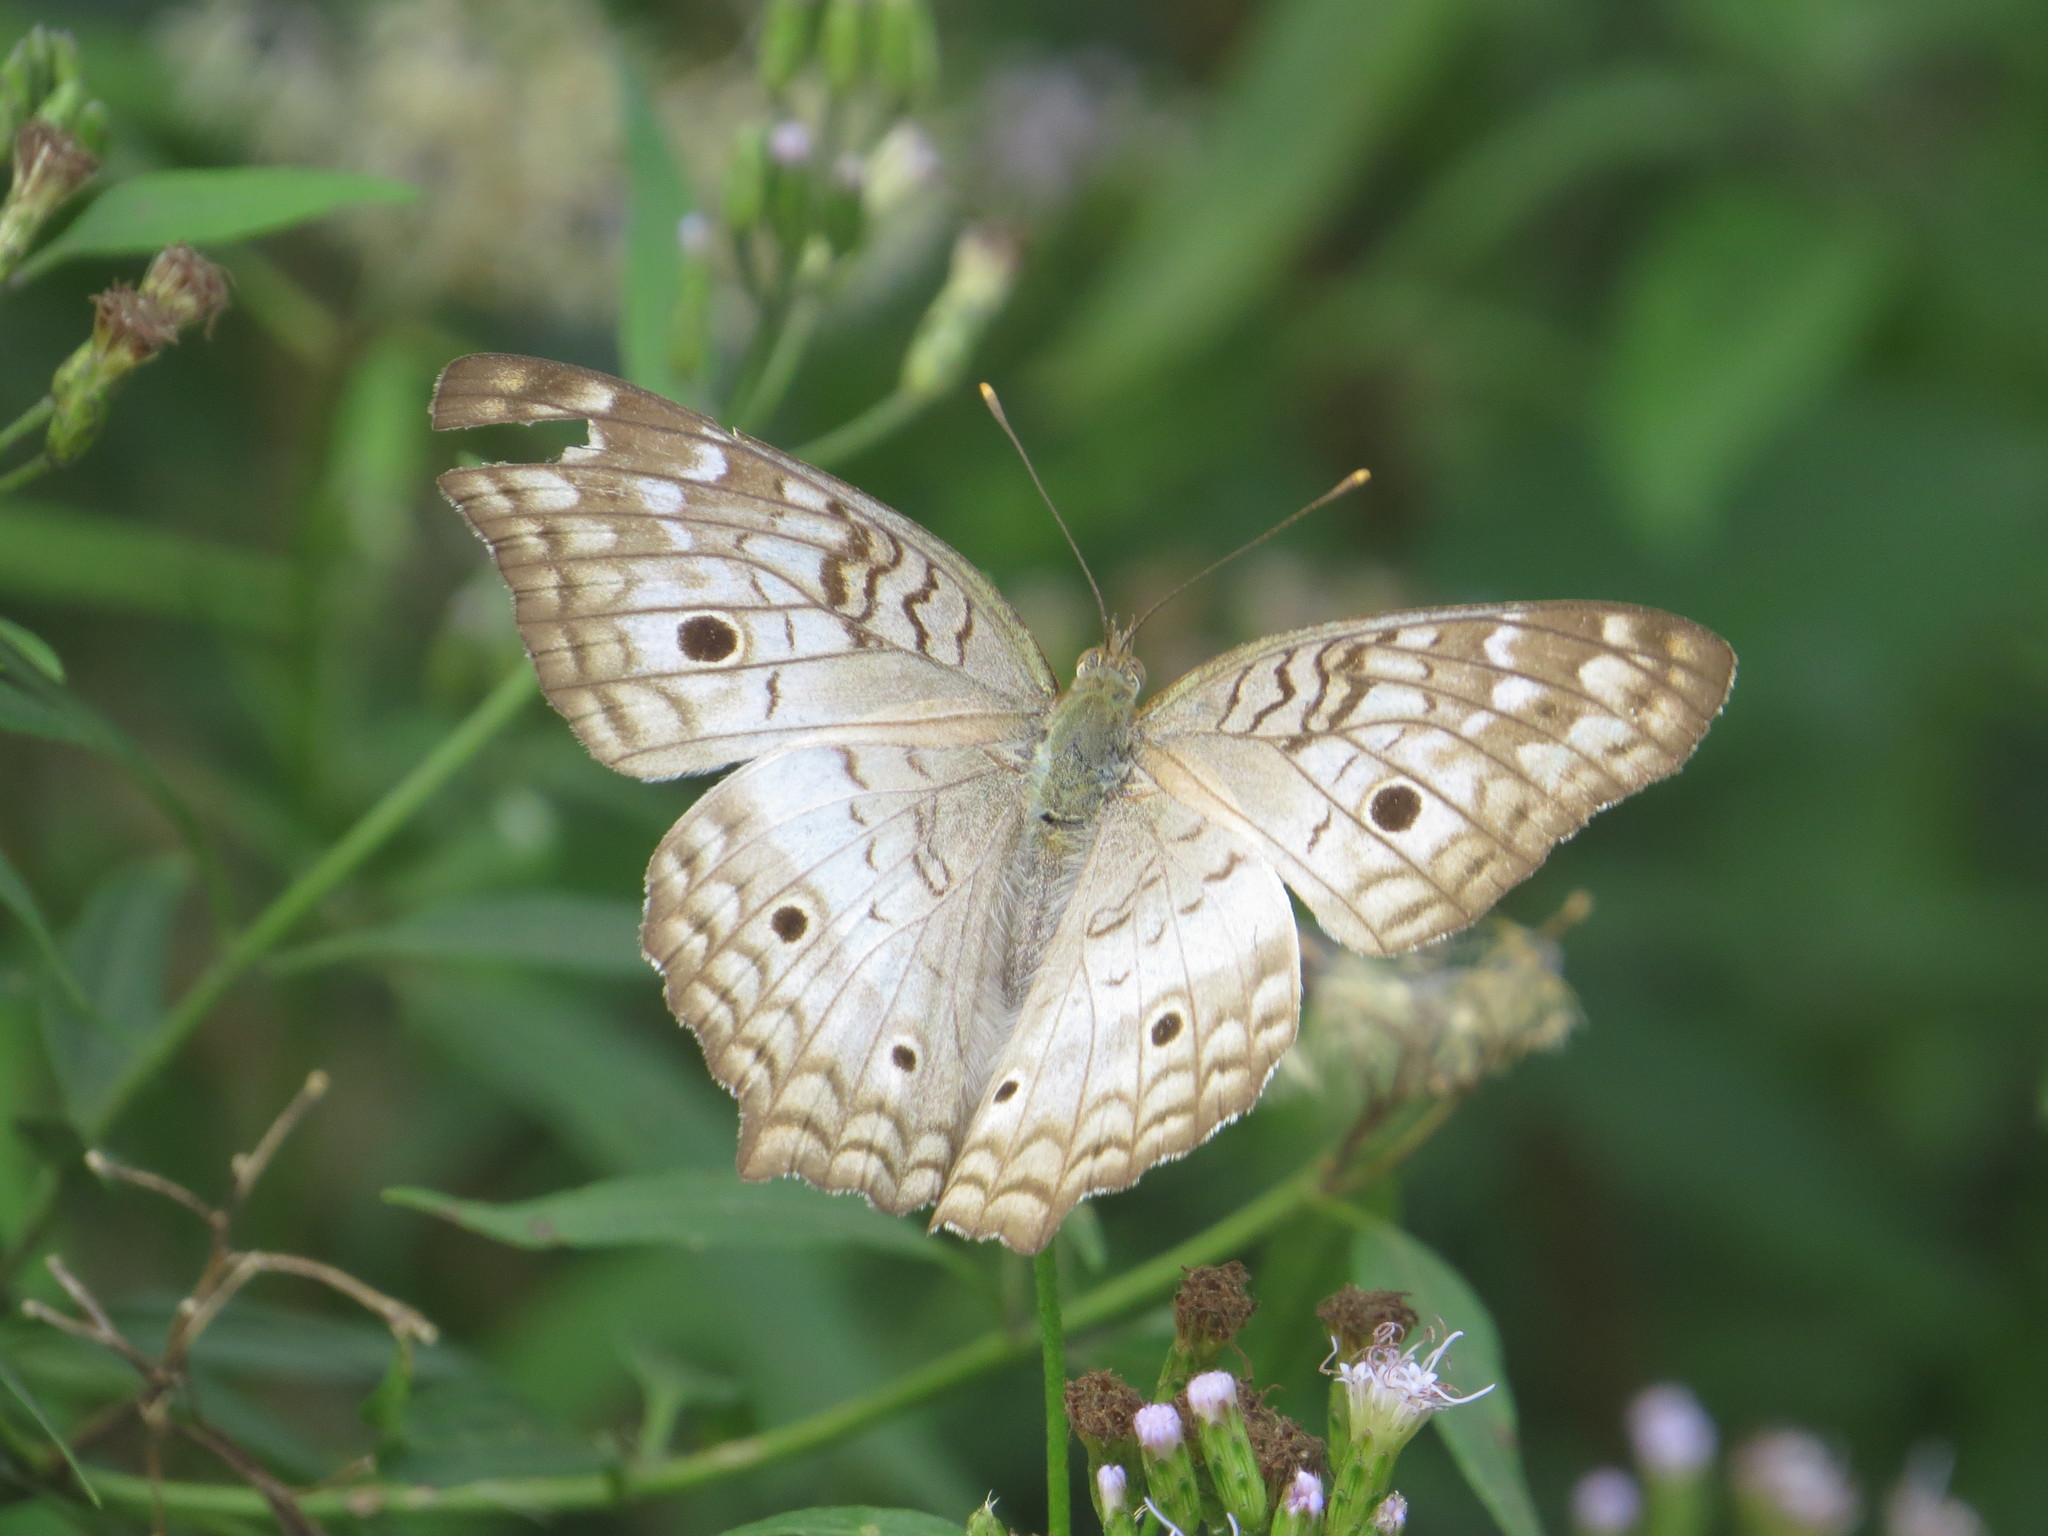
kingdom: Animalia
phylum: Arthropoda
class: Insecta
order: Lepidoptera
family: Nymphalidae
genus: Anartia
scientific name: Anartia jatrophae
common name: White peacock
